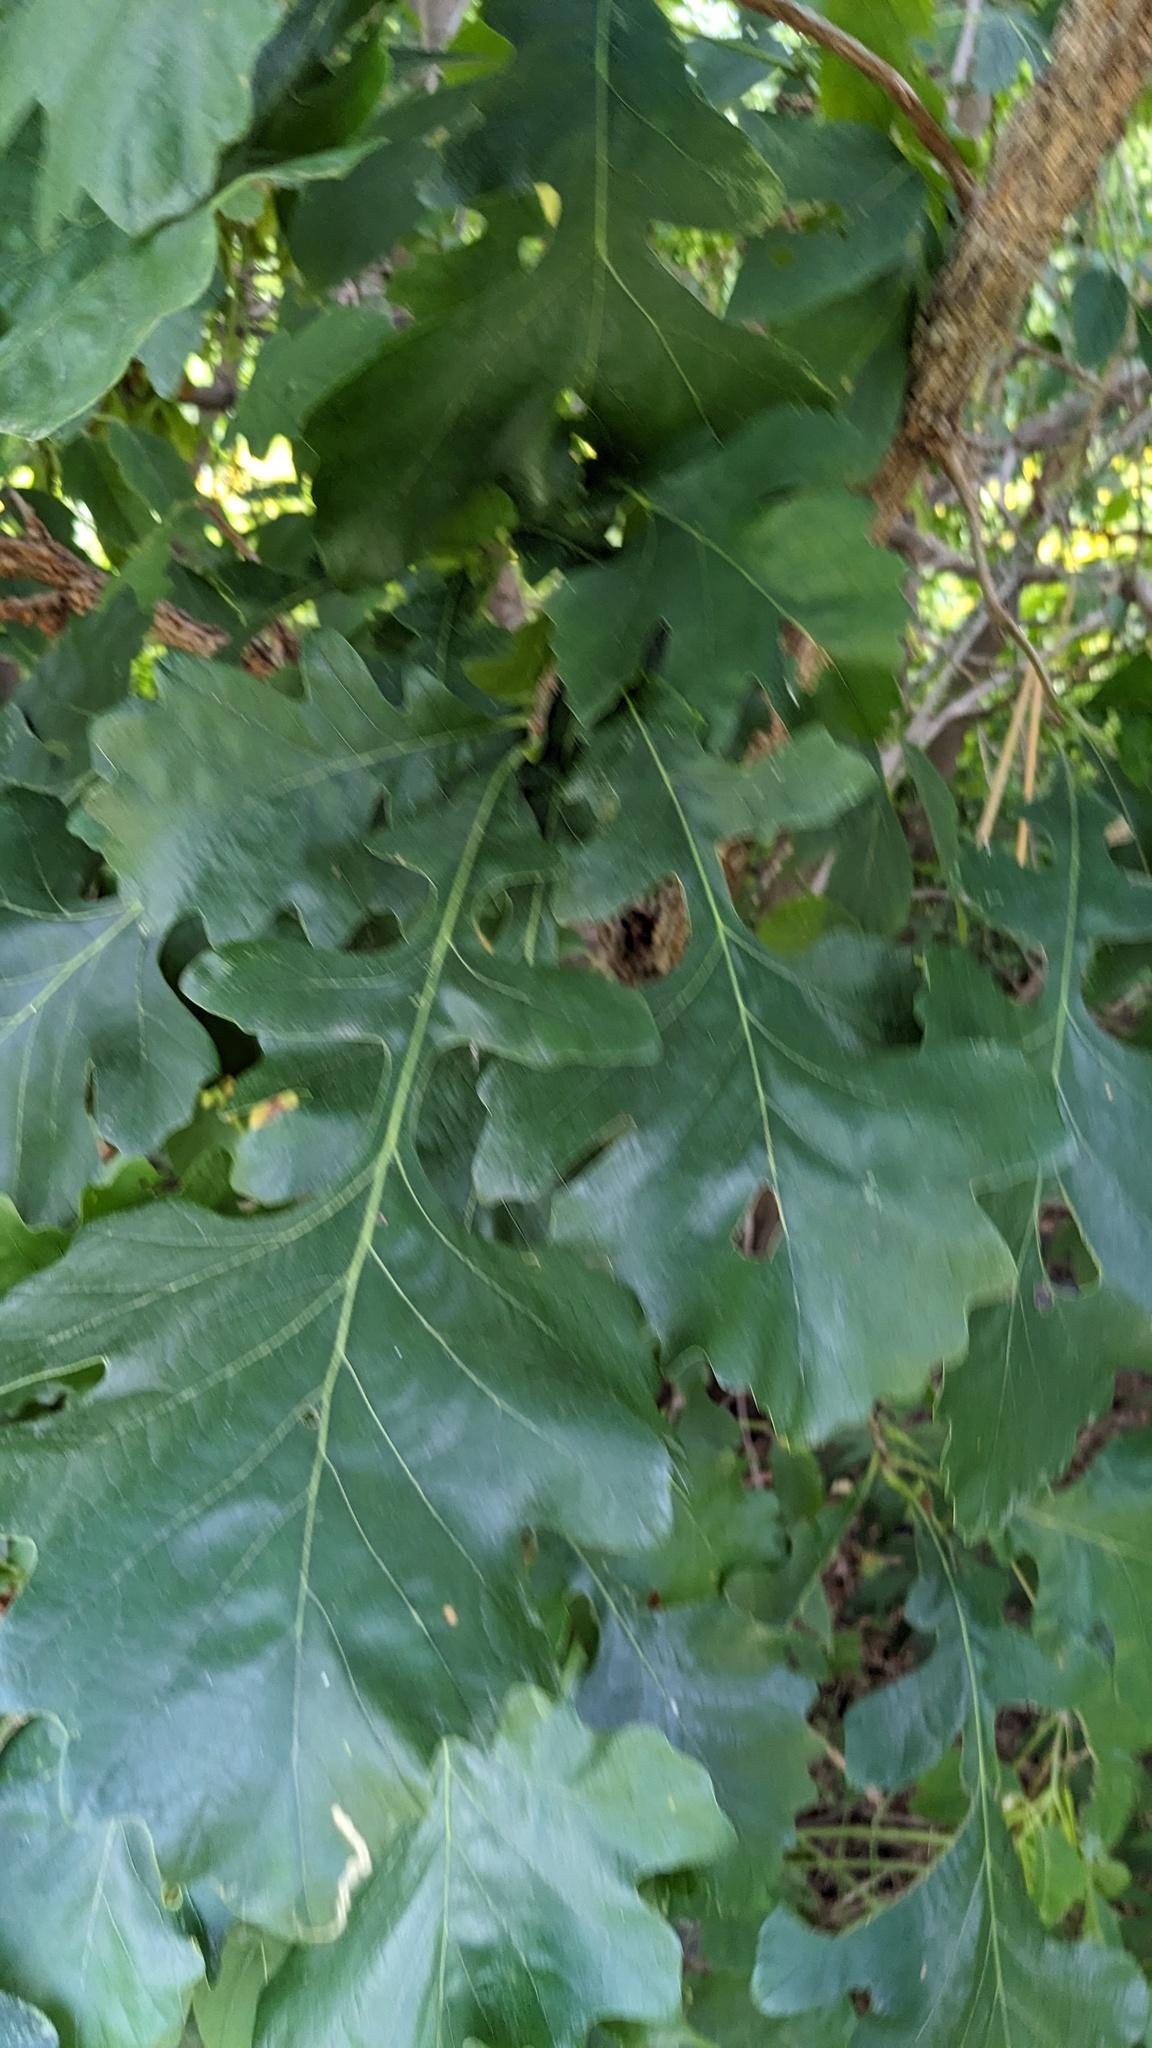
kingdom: Plantae
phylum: Tracheophyta
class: Magnoliopsida
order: Fagales
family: Fagaceae
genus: Quercus
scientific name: Quercus macrocarpa
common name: Bur oak
